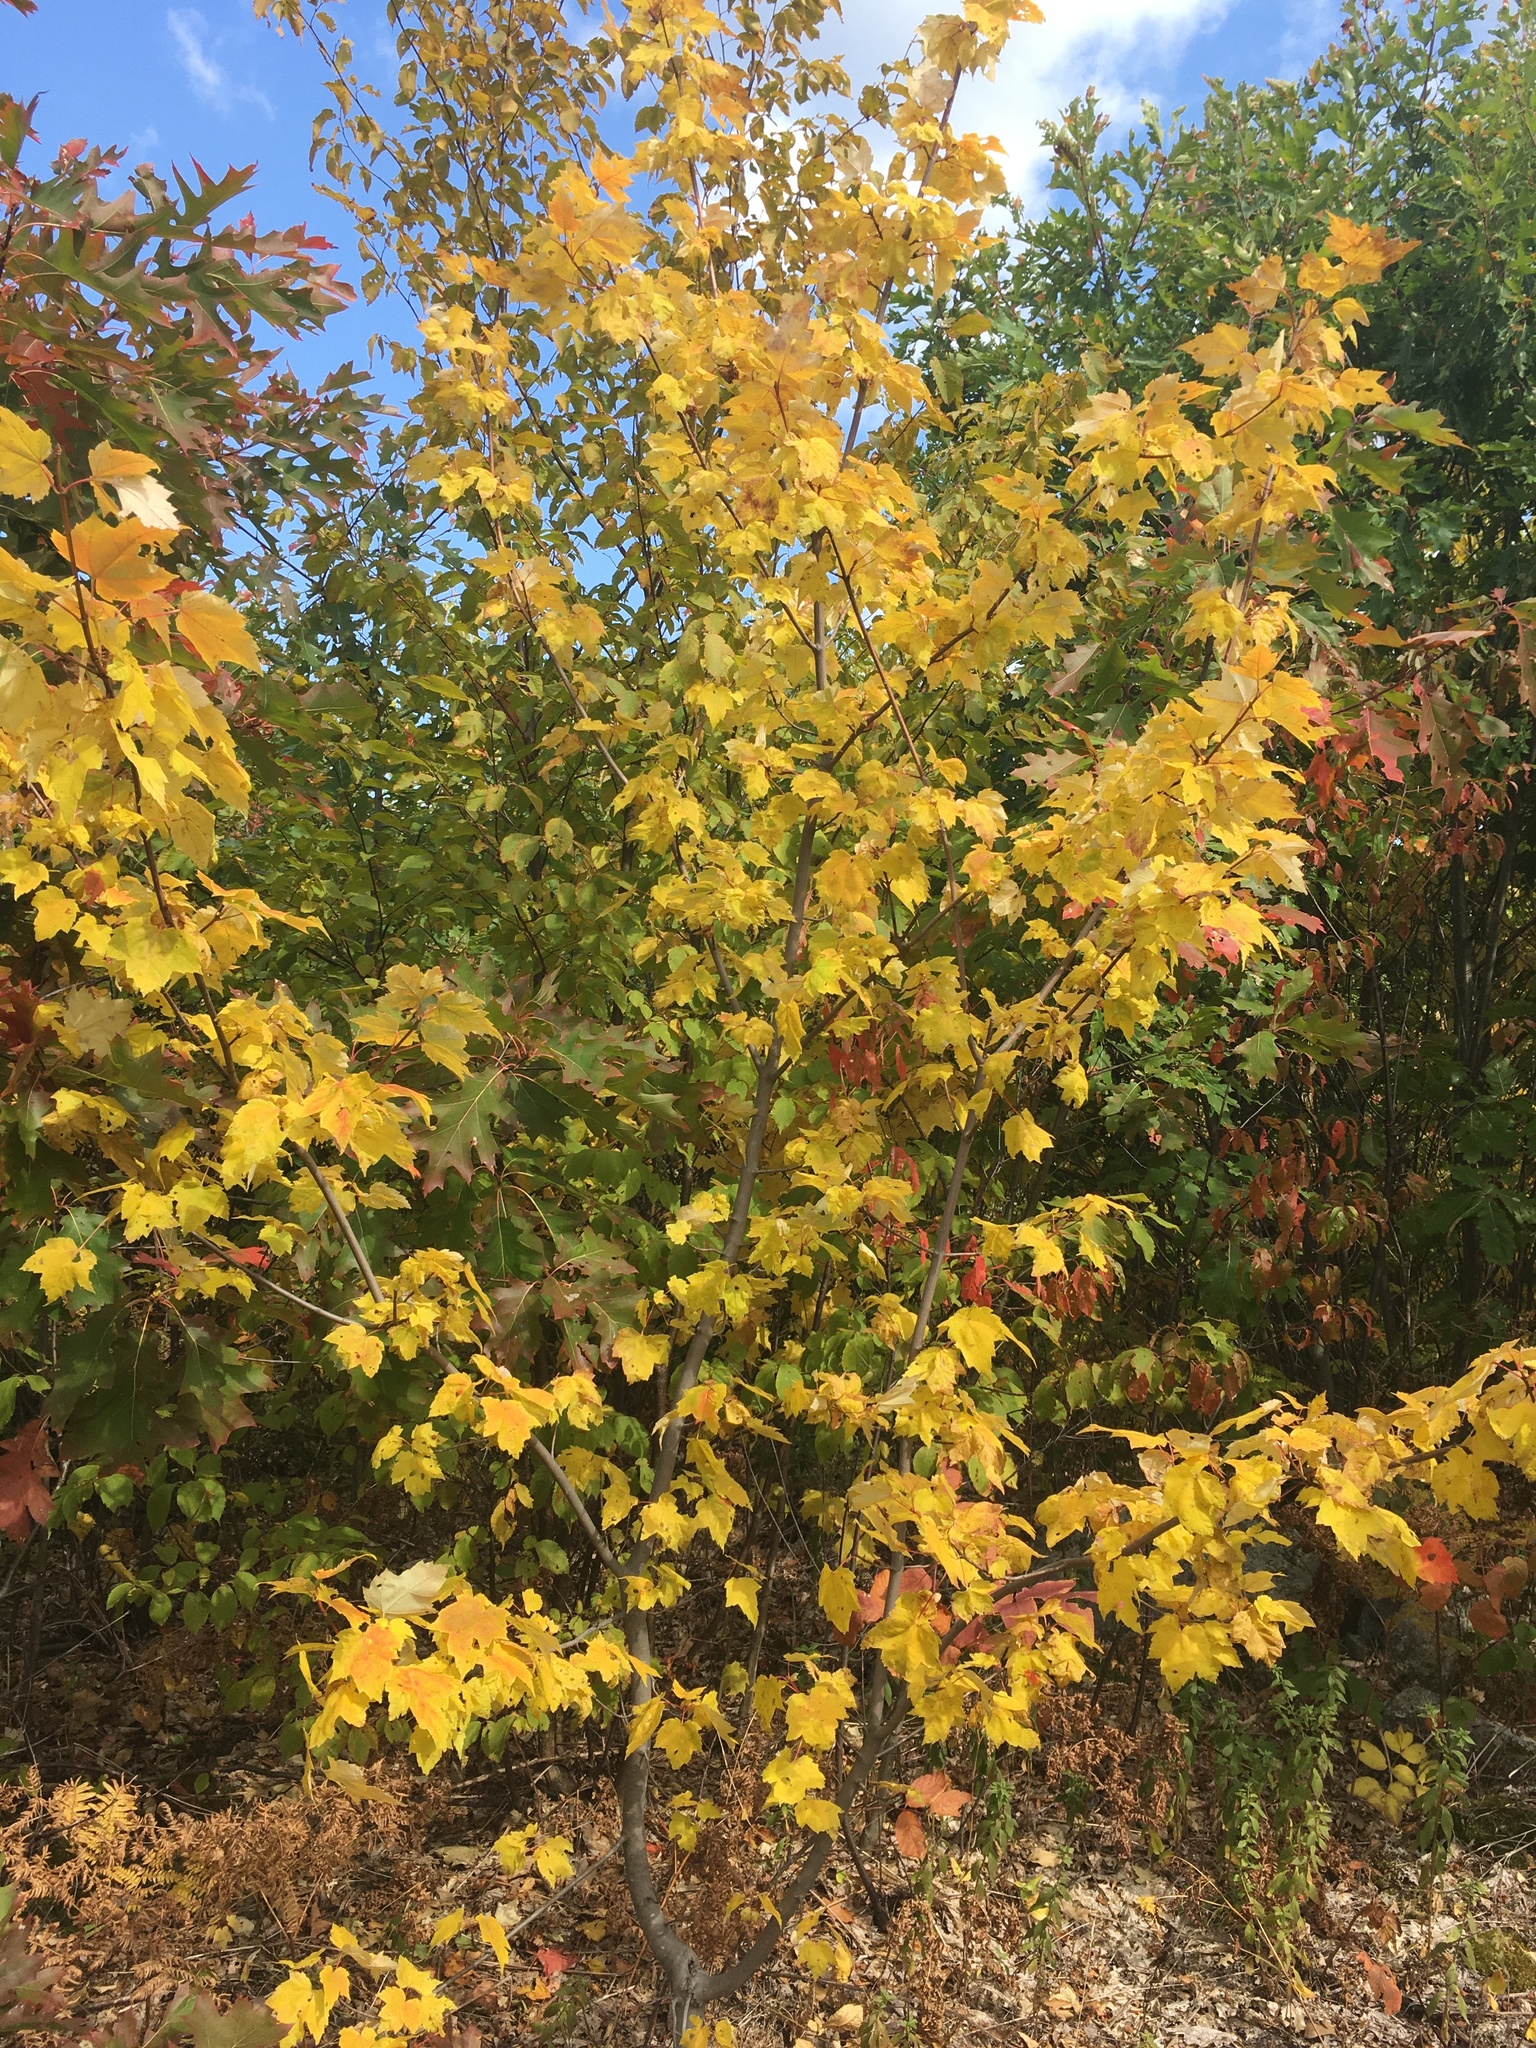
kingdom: Plantae
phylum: Tracheophyta
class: Magnoliopsida
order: Sapindales
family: Sapindaceae
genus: Acer
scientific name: Acer rubrum
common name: Red maple
